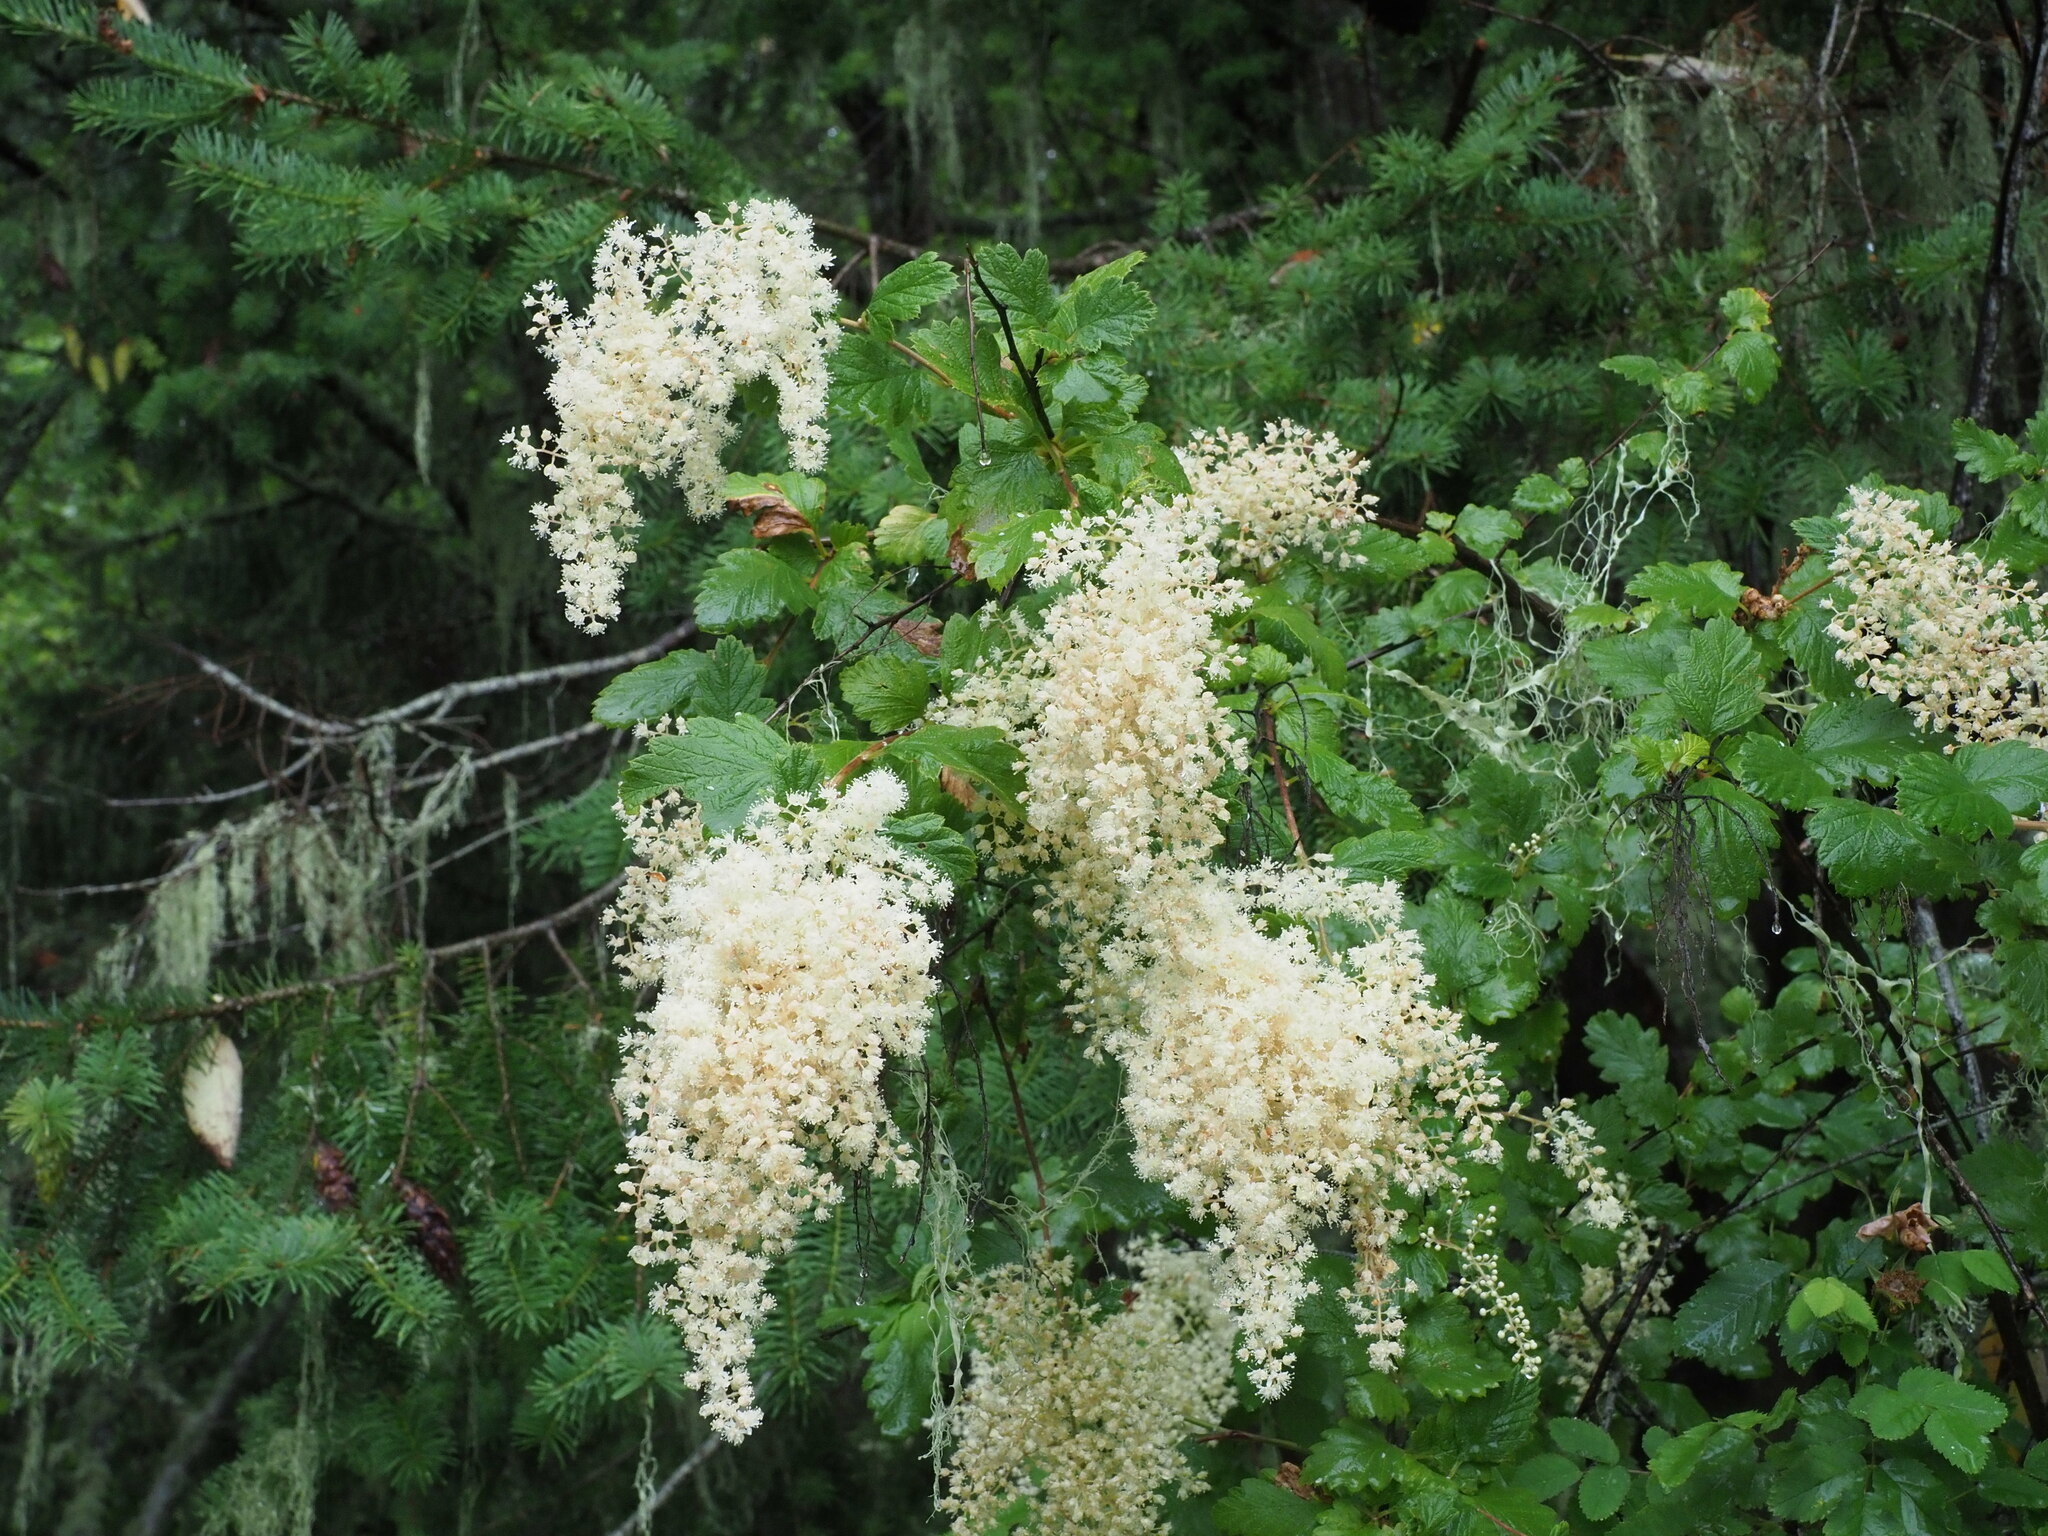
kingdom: Plantae
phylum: Tracheophyta
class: Magnoliopsida
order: Rosales
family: Rosaceae
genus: Holodiscus
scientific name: Holodiscus discolor
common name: Oceanspray
